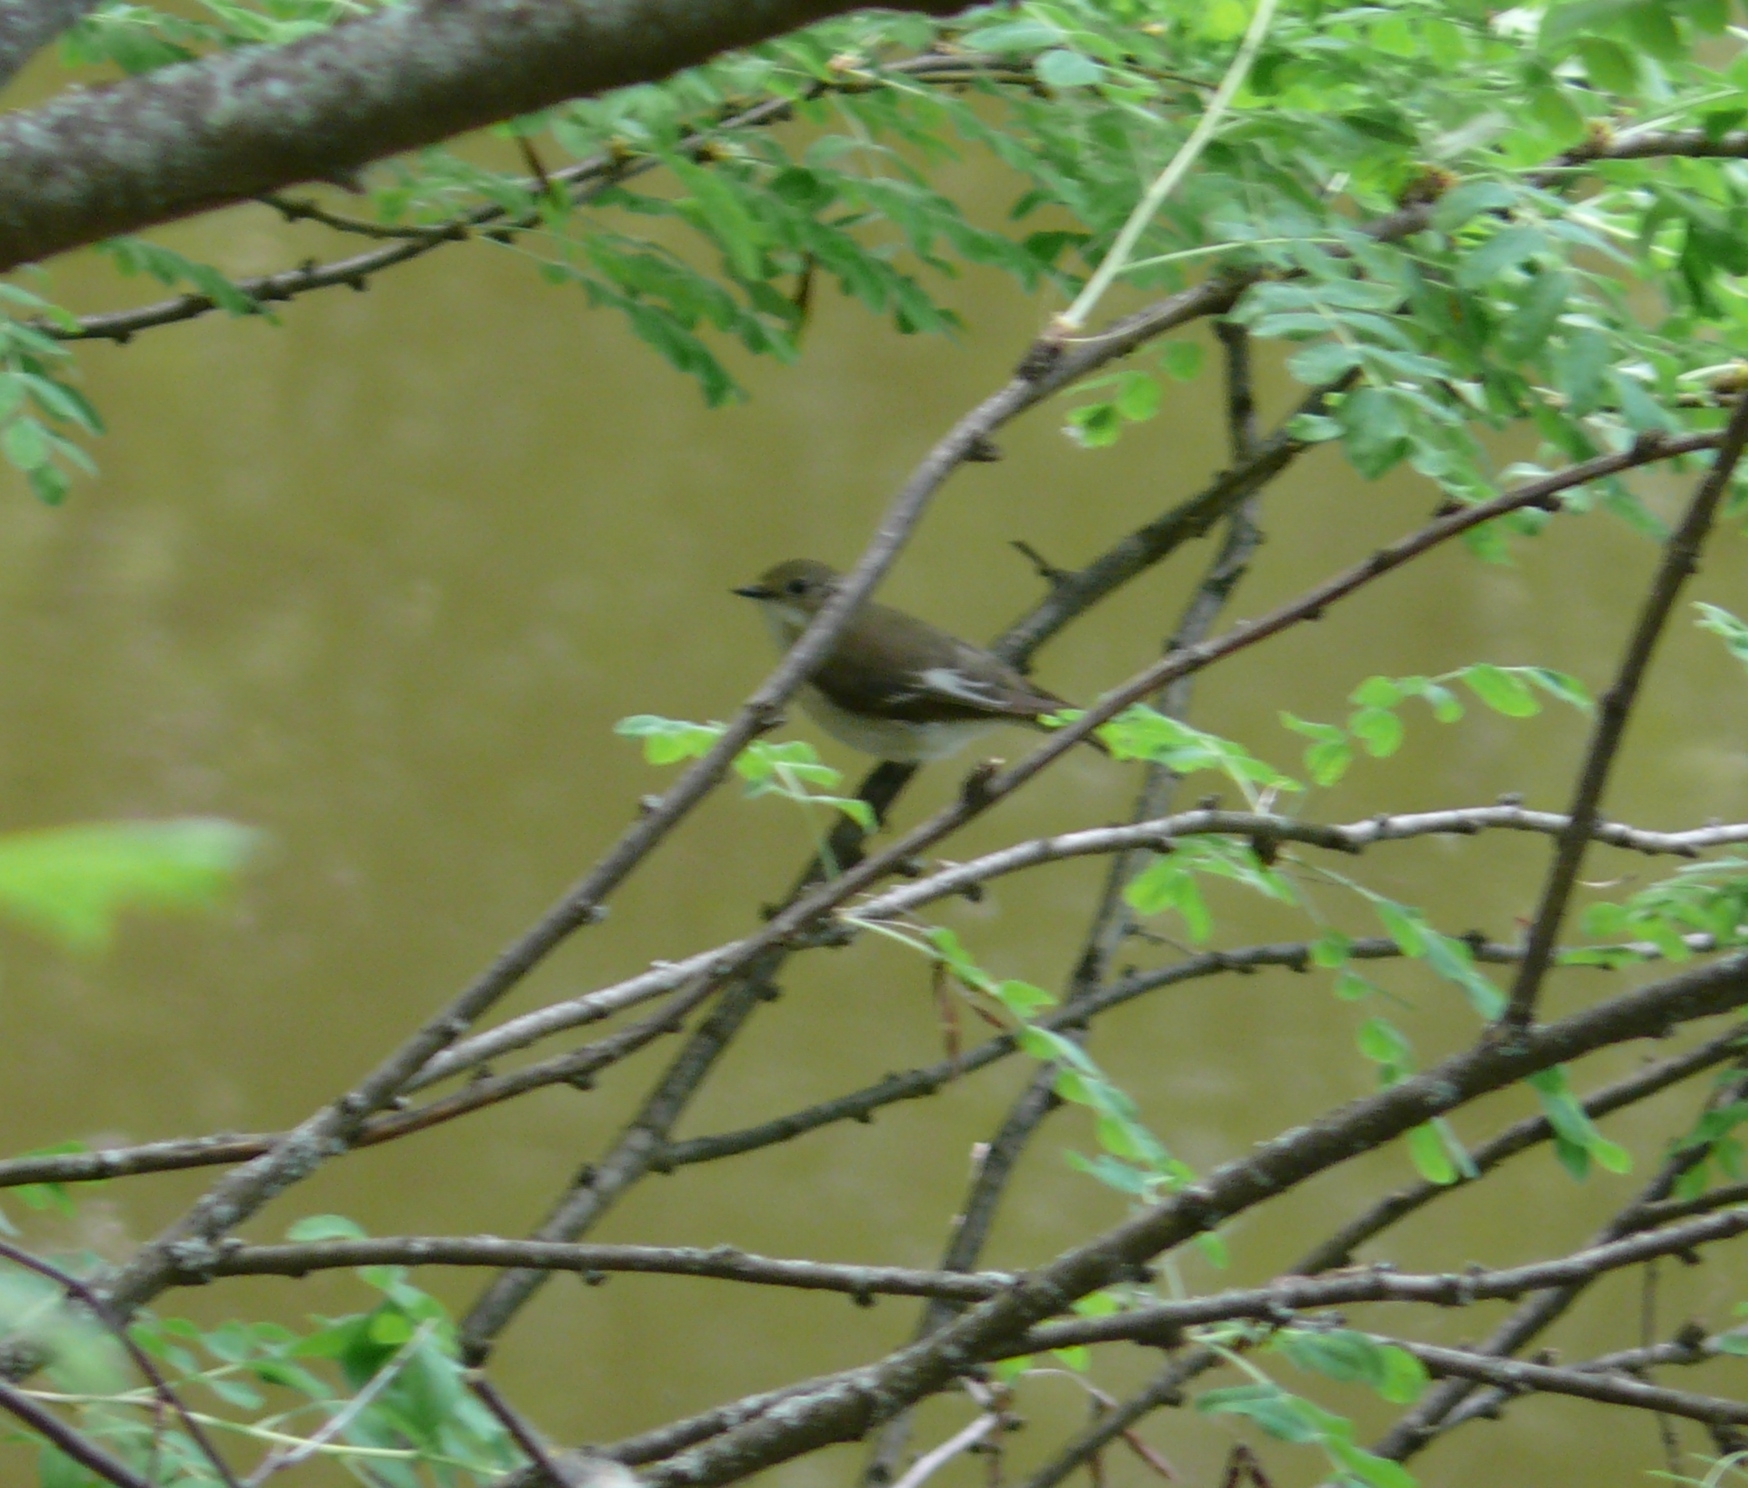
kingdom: Animalia
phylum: Chordata
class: Aves
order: Passeriformes
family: Muscicapidae
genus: Ficedula
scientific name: Ficedula hypoleuca
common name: European pied flycatcher
